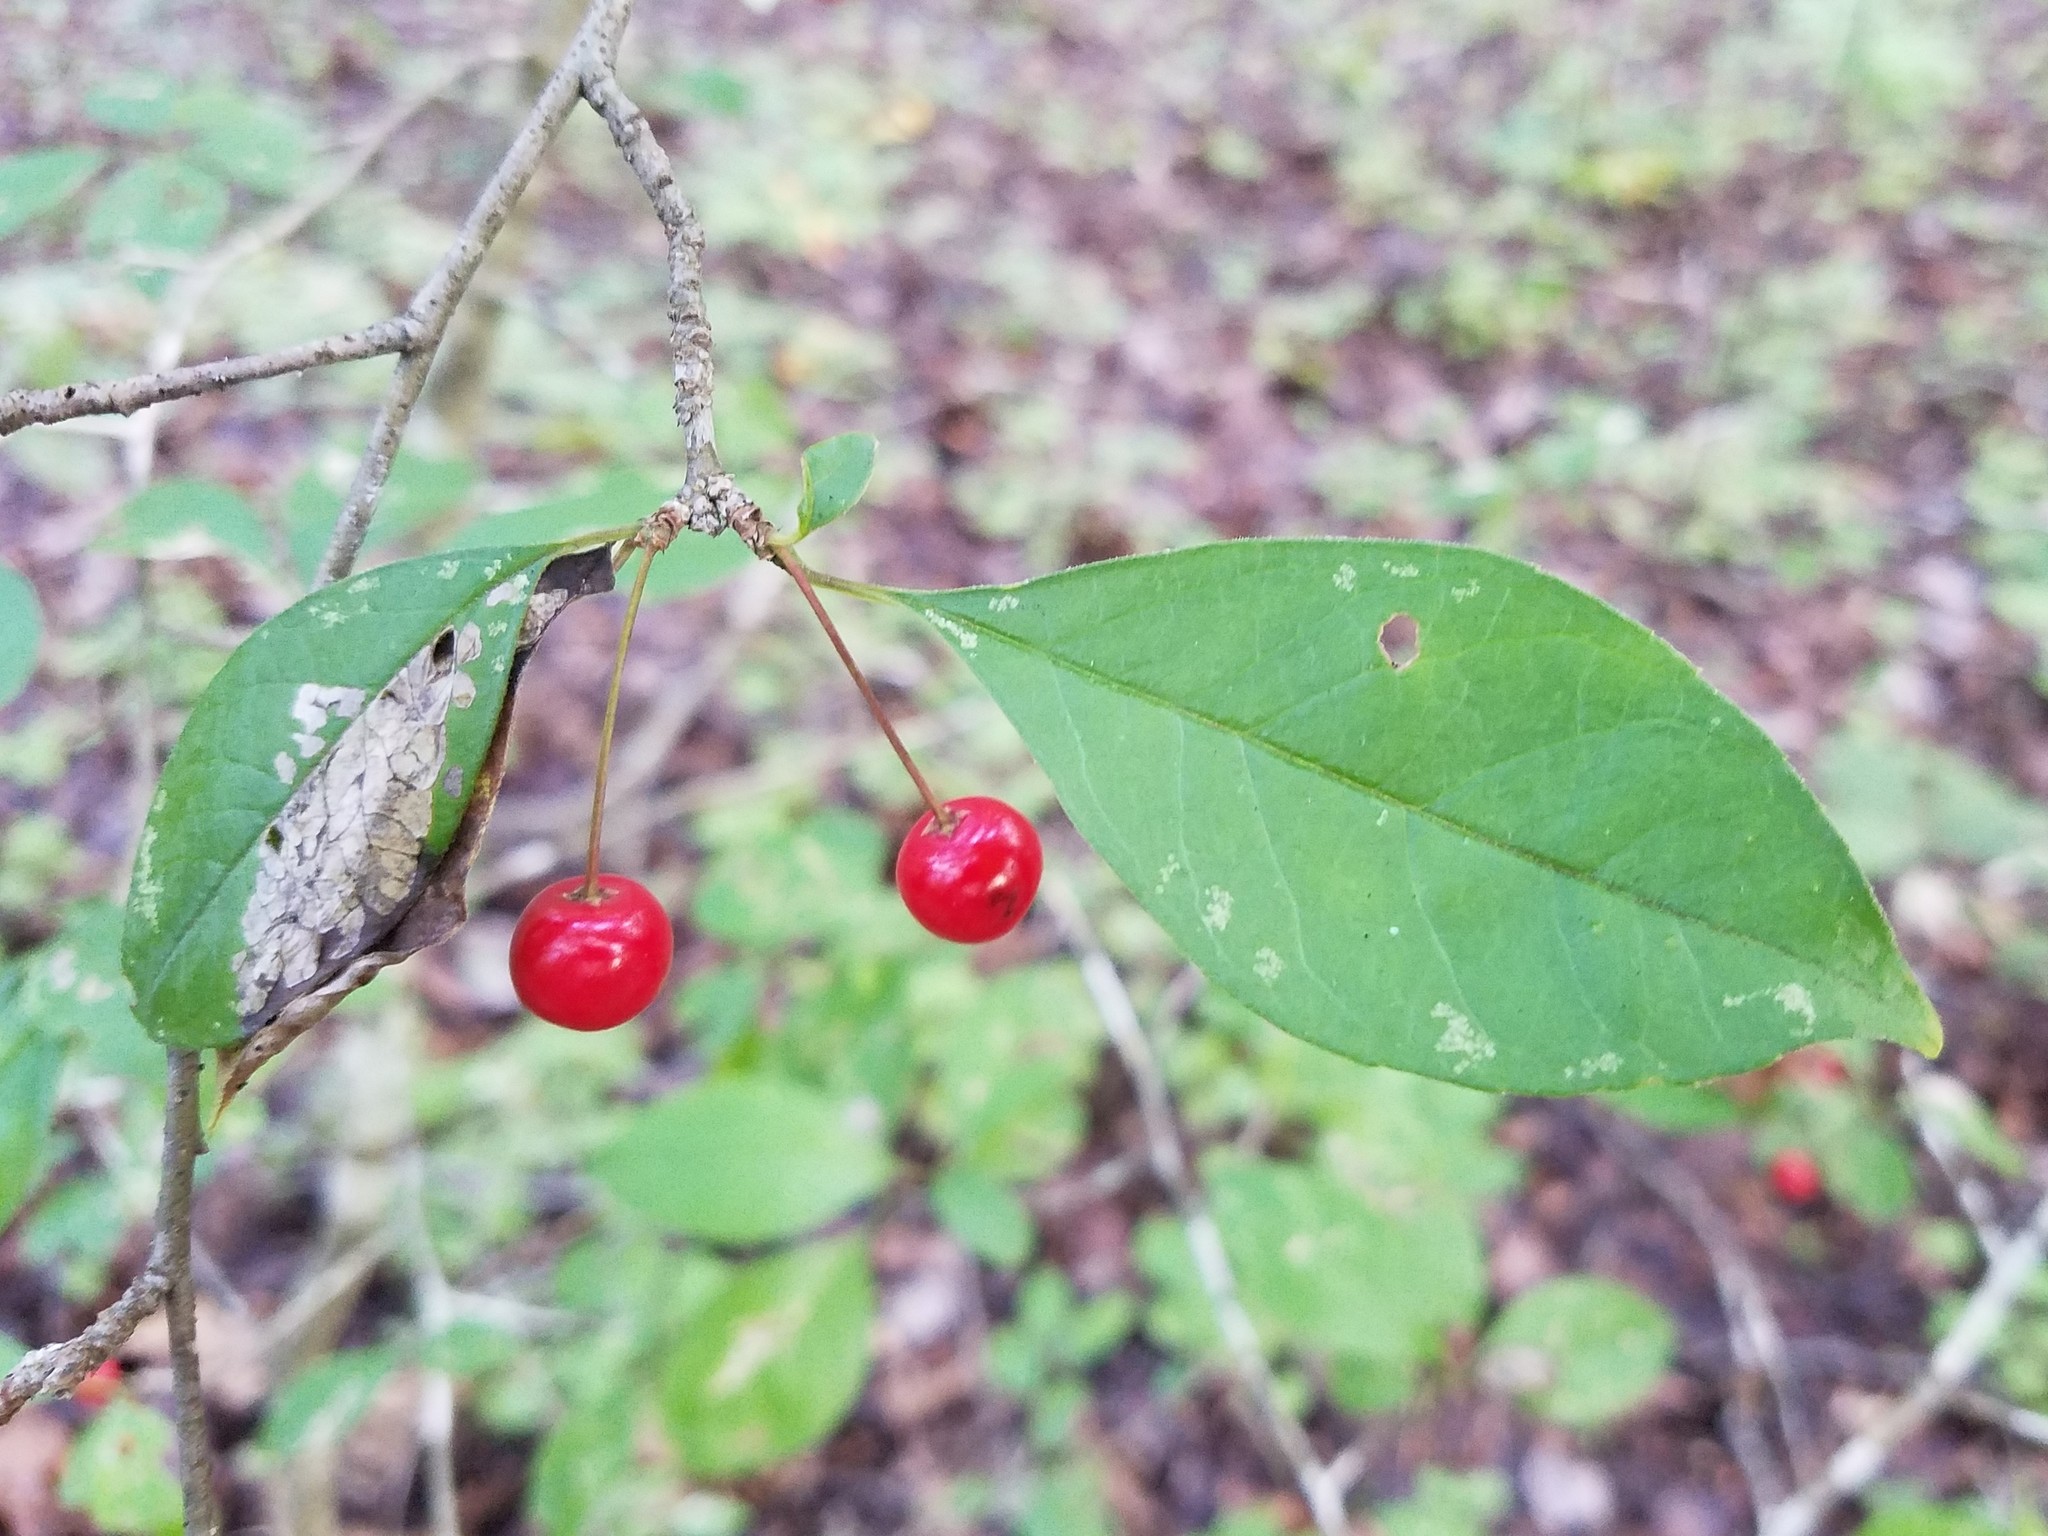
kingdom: Plantae
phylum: Tracheophyta
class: Magnoliopsida
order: Aquifoliales
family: Aquifoliaceae
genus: Ilex
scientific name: Ilex longipes
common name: Georgia holly
